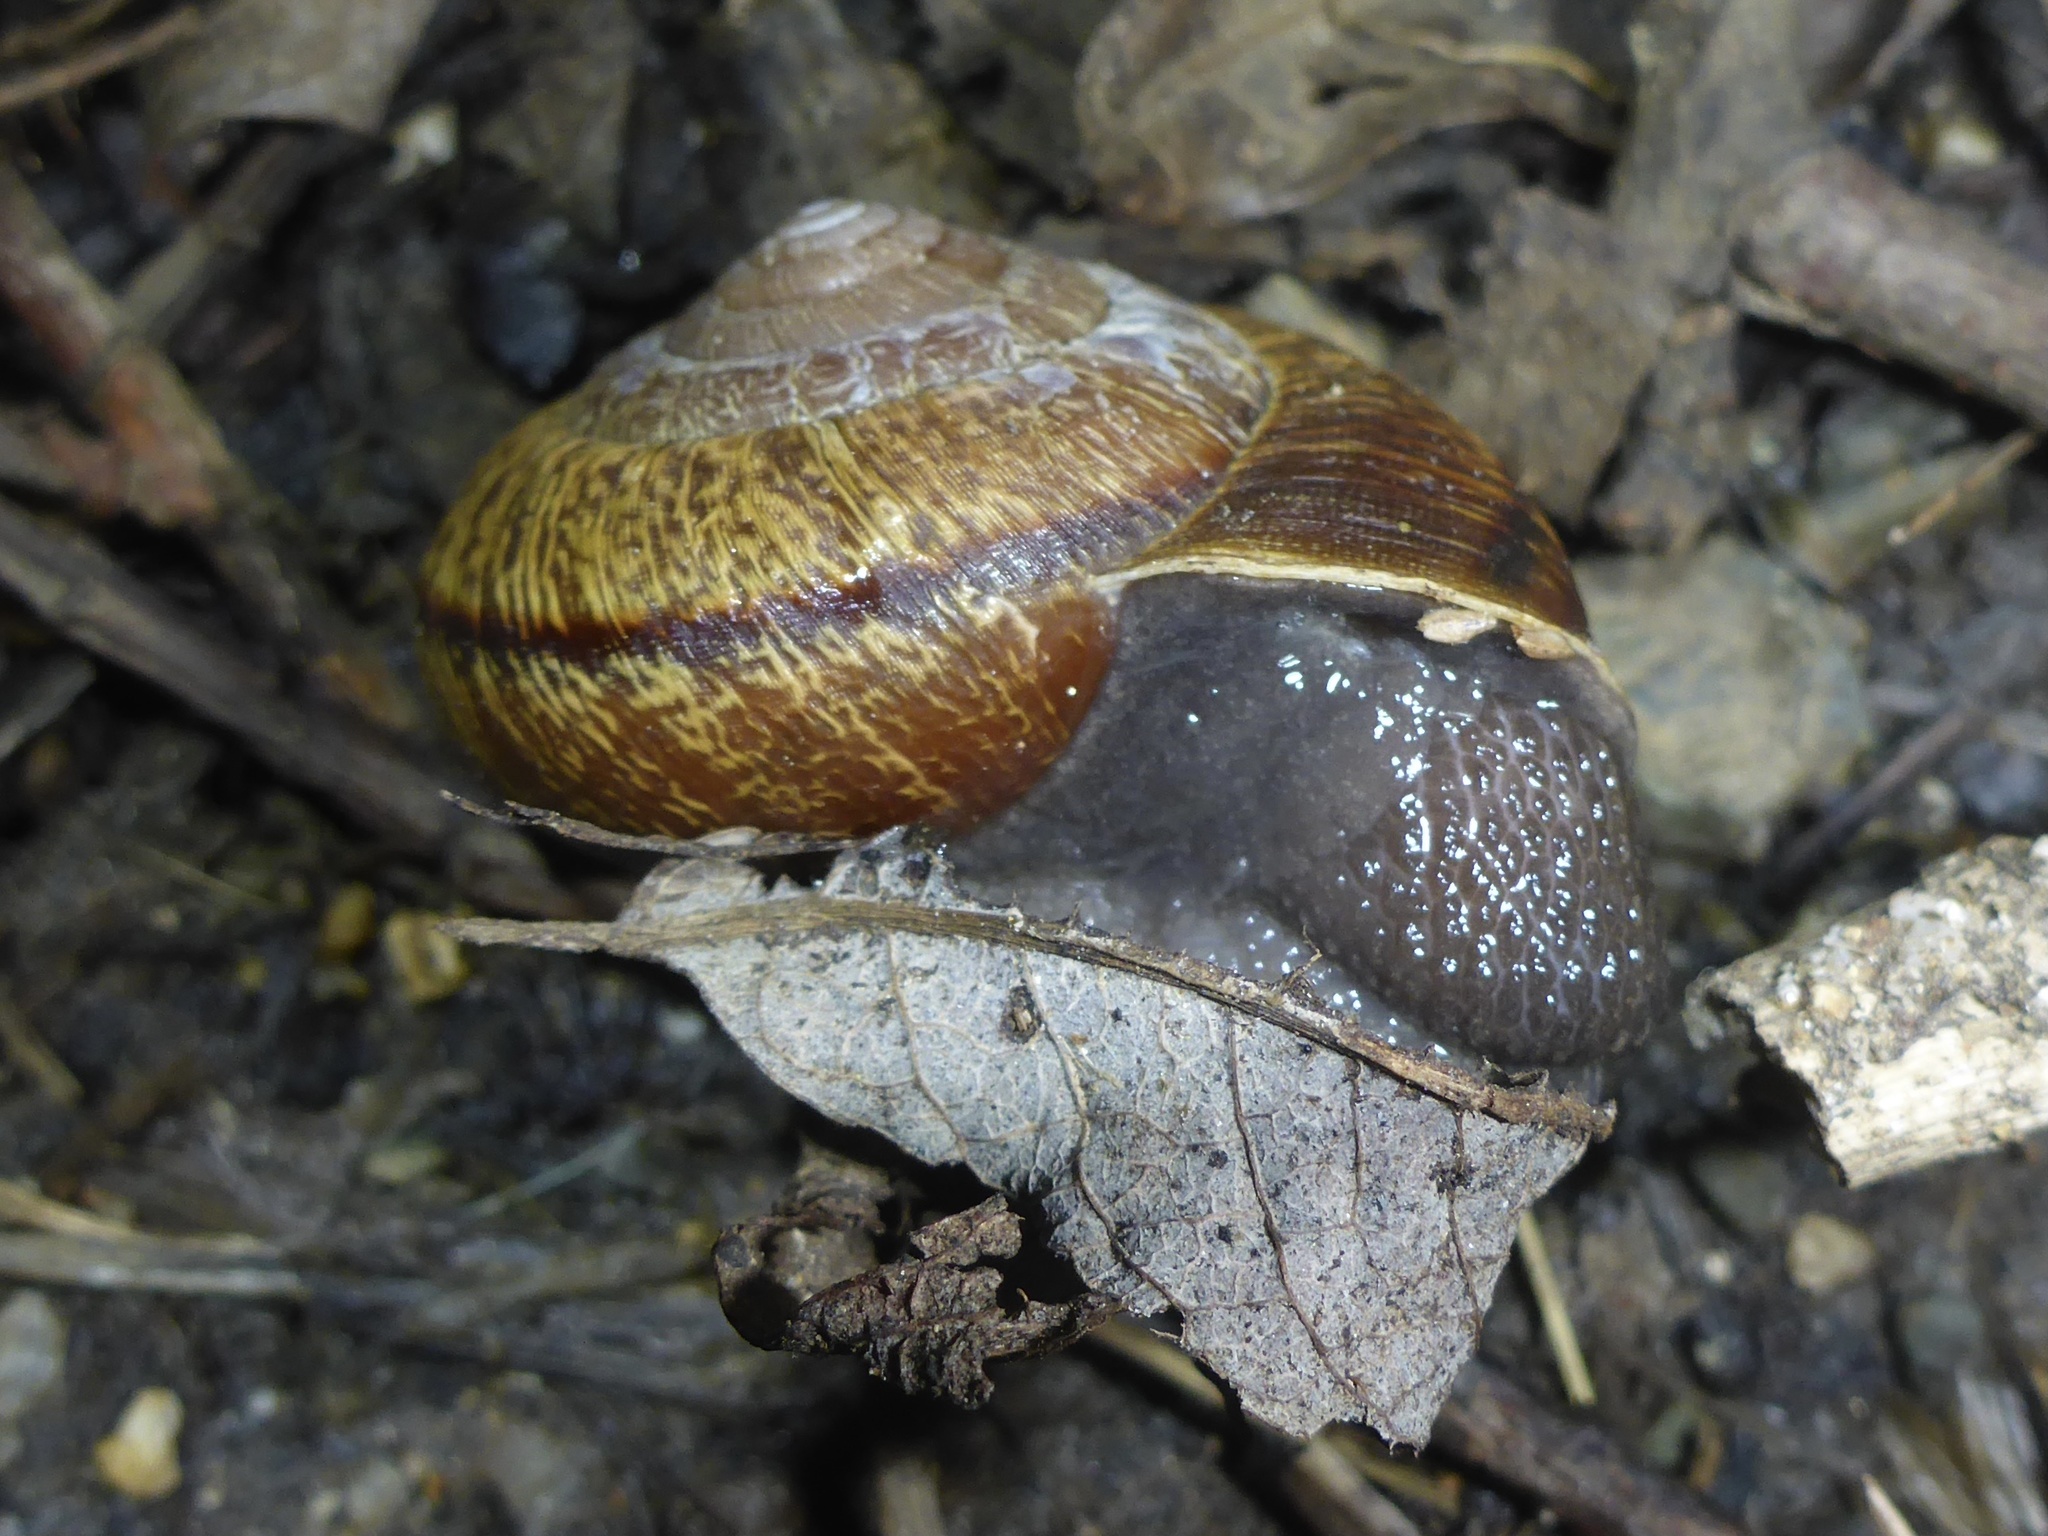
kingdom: Animalia
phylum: Mollusca
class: Gastropoda
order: Stylommatophora
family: Xanthonychidae
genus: Helminthoglypta
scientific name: Helminthoglypta arrosa
